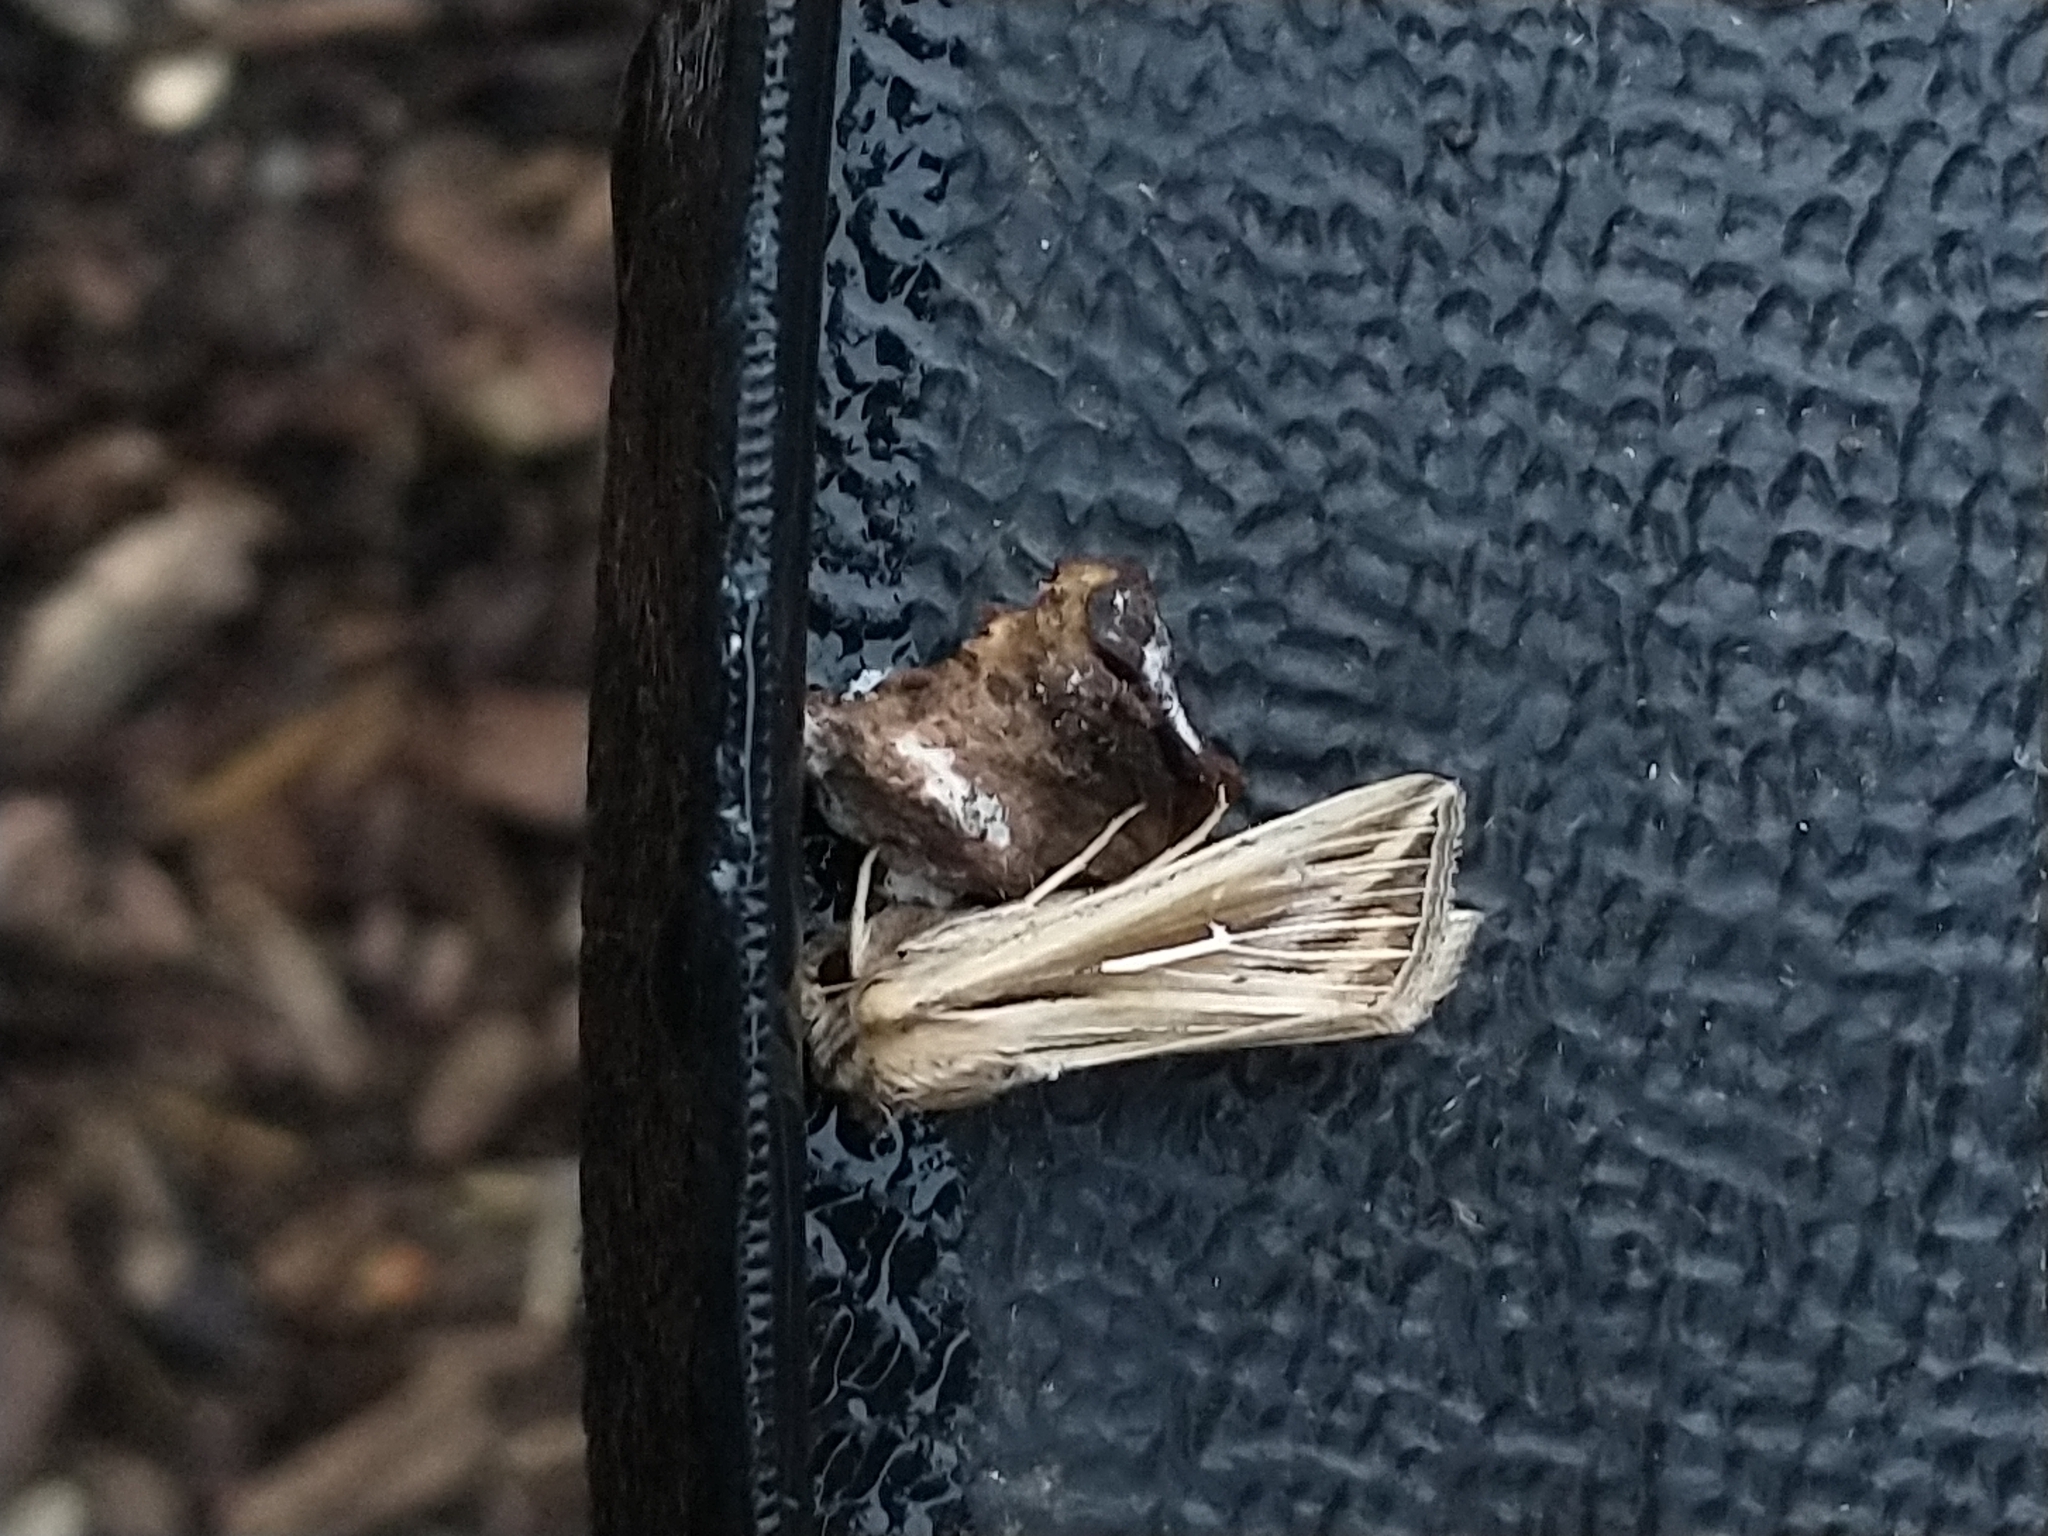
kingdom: Animalia
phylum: Arthropoda
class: Insecta
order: Lepidoptera
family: Noctuidae
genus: Mythimna
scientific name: Mythimna l-album
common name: L-album wainscot
